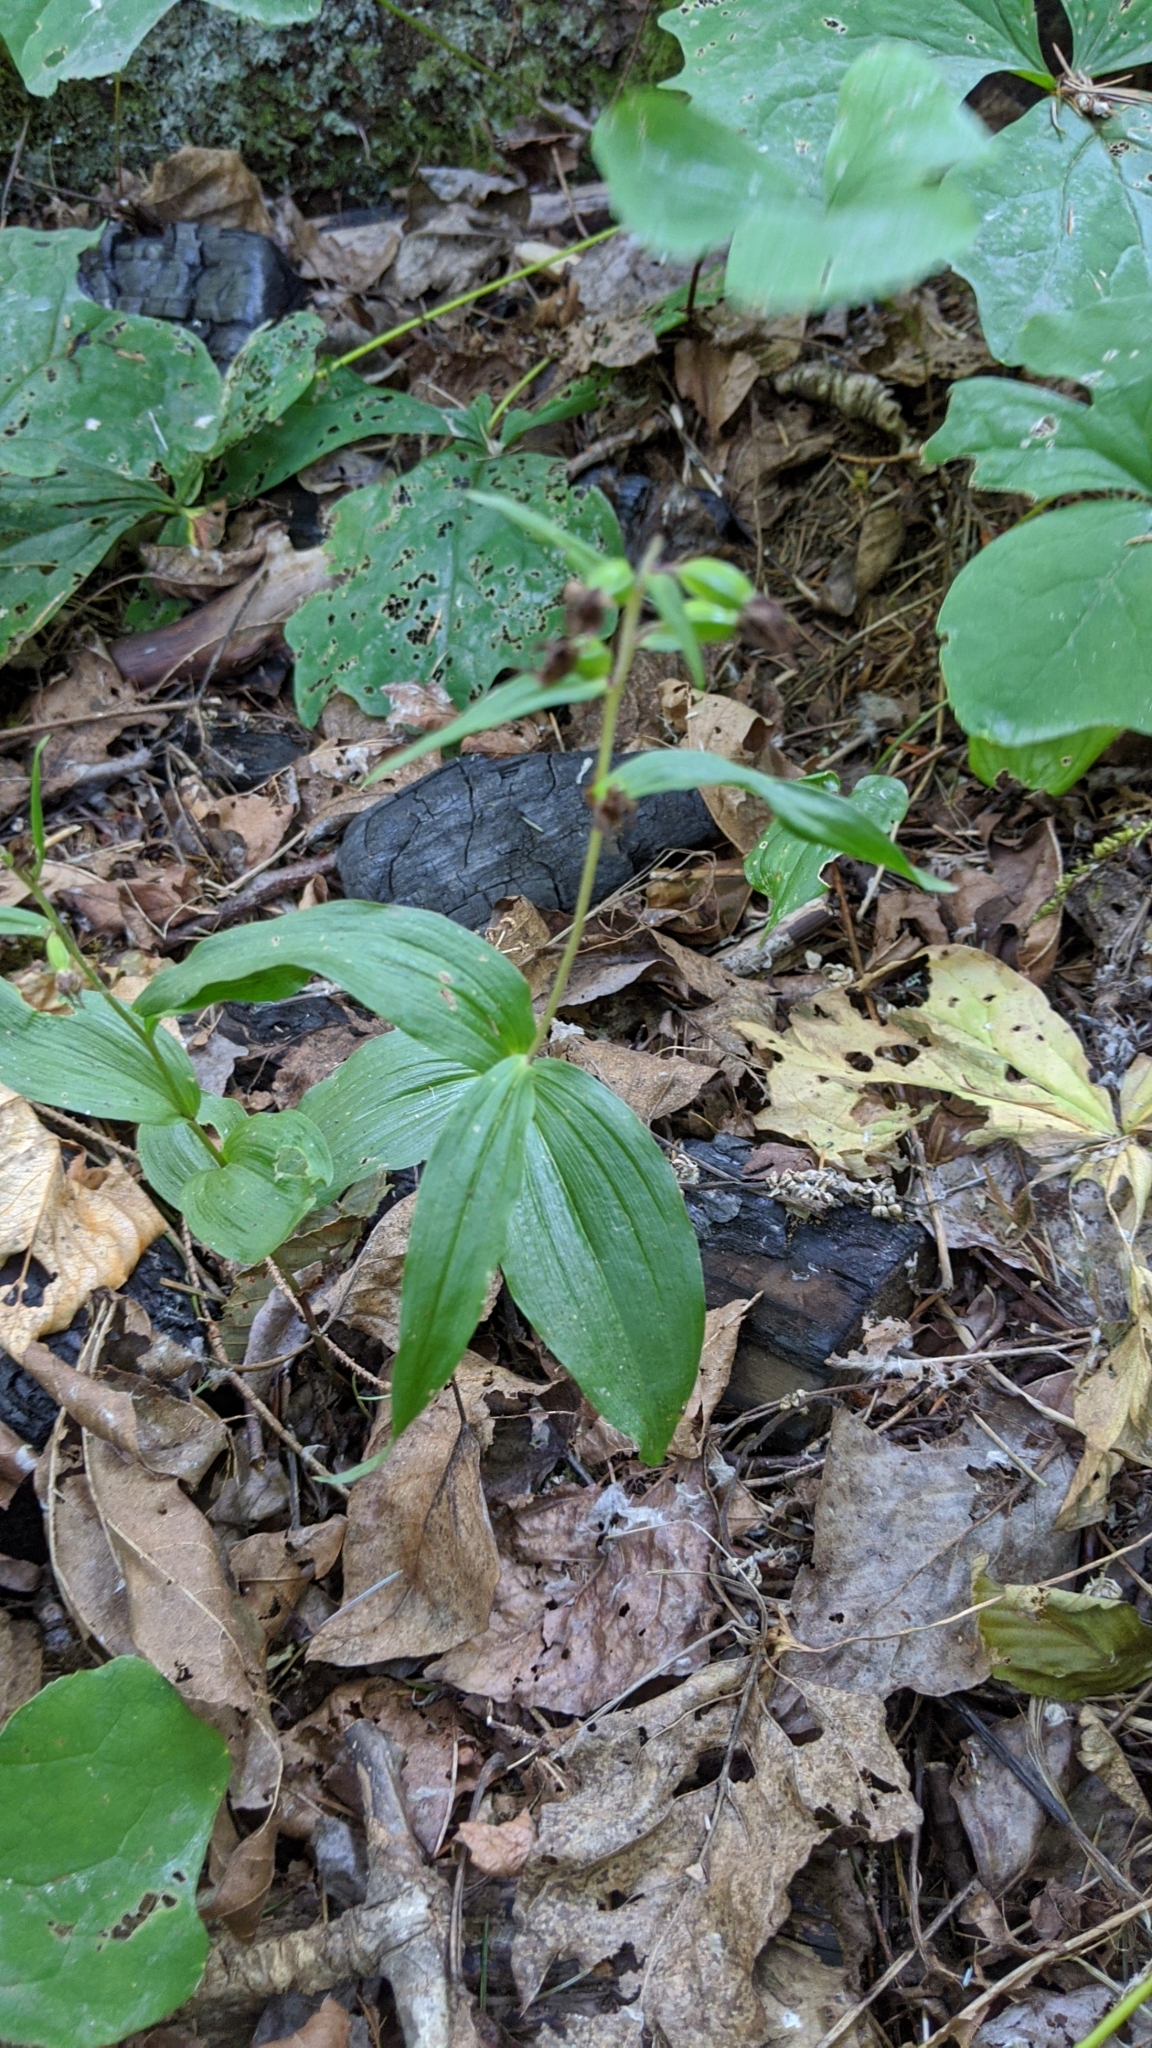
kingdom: Plantae
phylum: Tracheophyta
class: Liliopsida
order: Asparagales
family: Orchidaceae
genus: Epipactis
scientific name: Epipactis helleborine
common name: Broad-leaved helleborine
